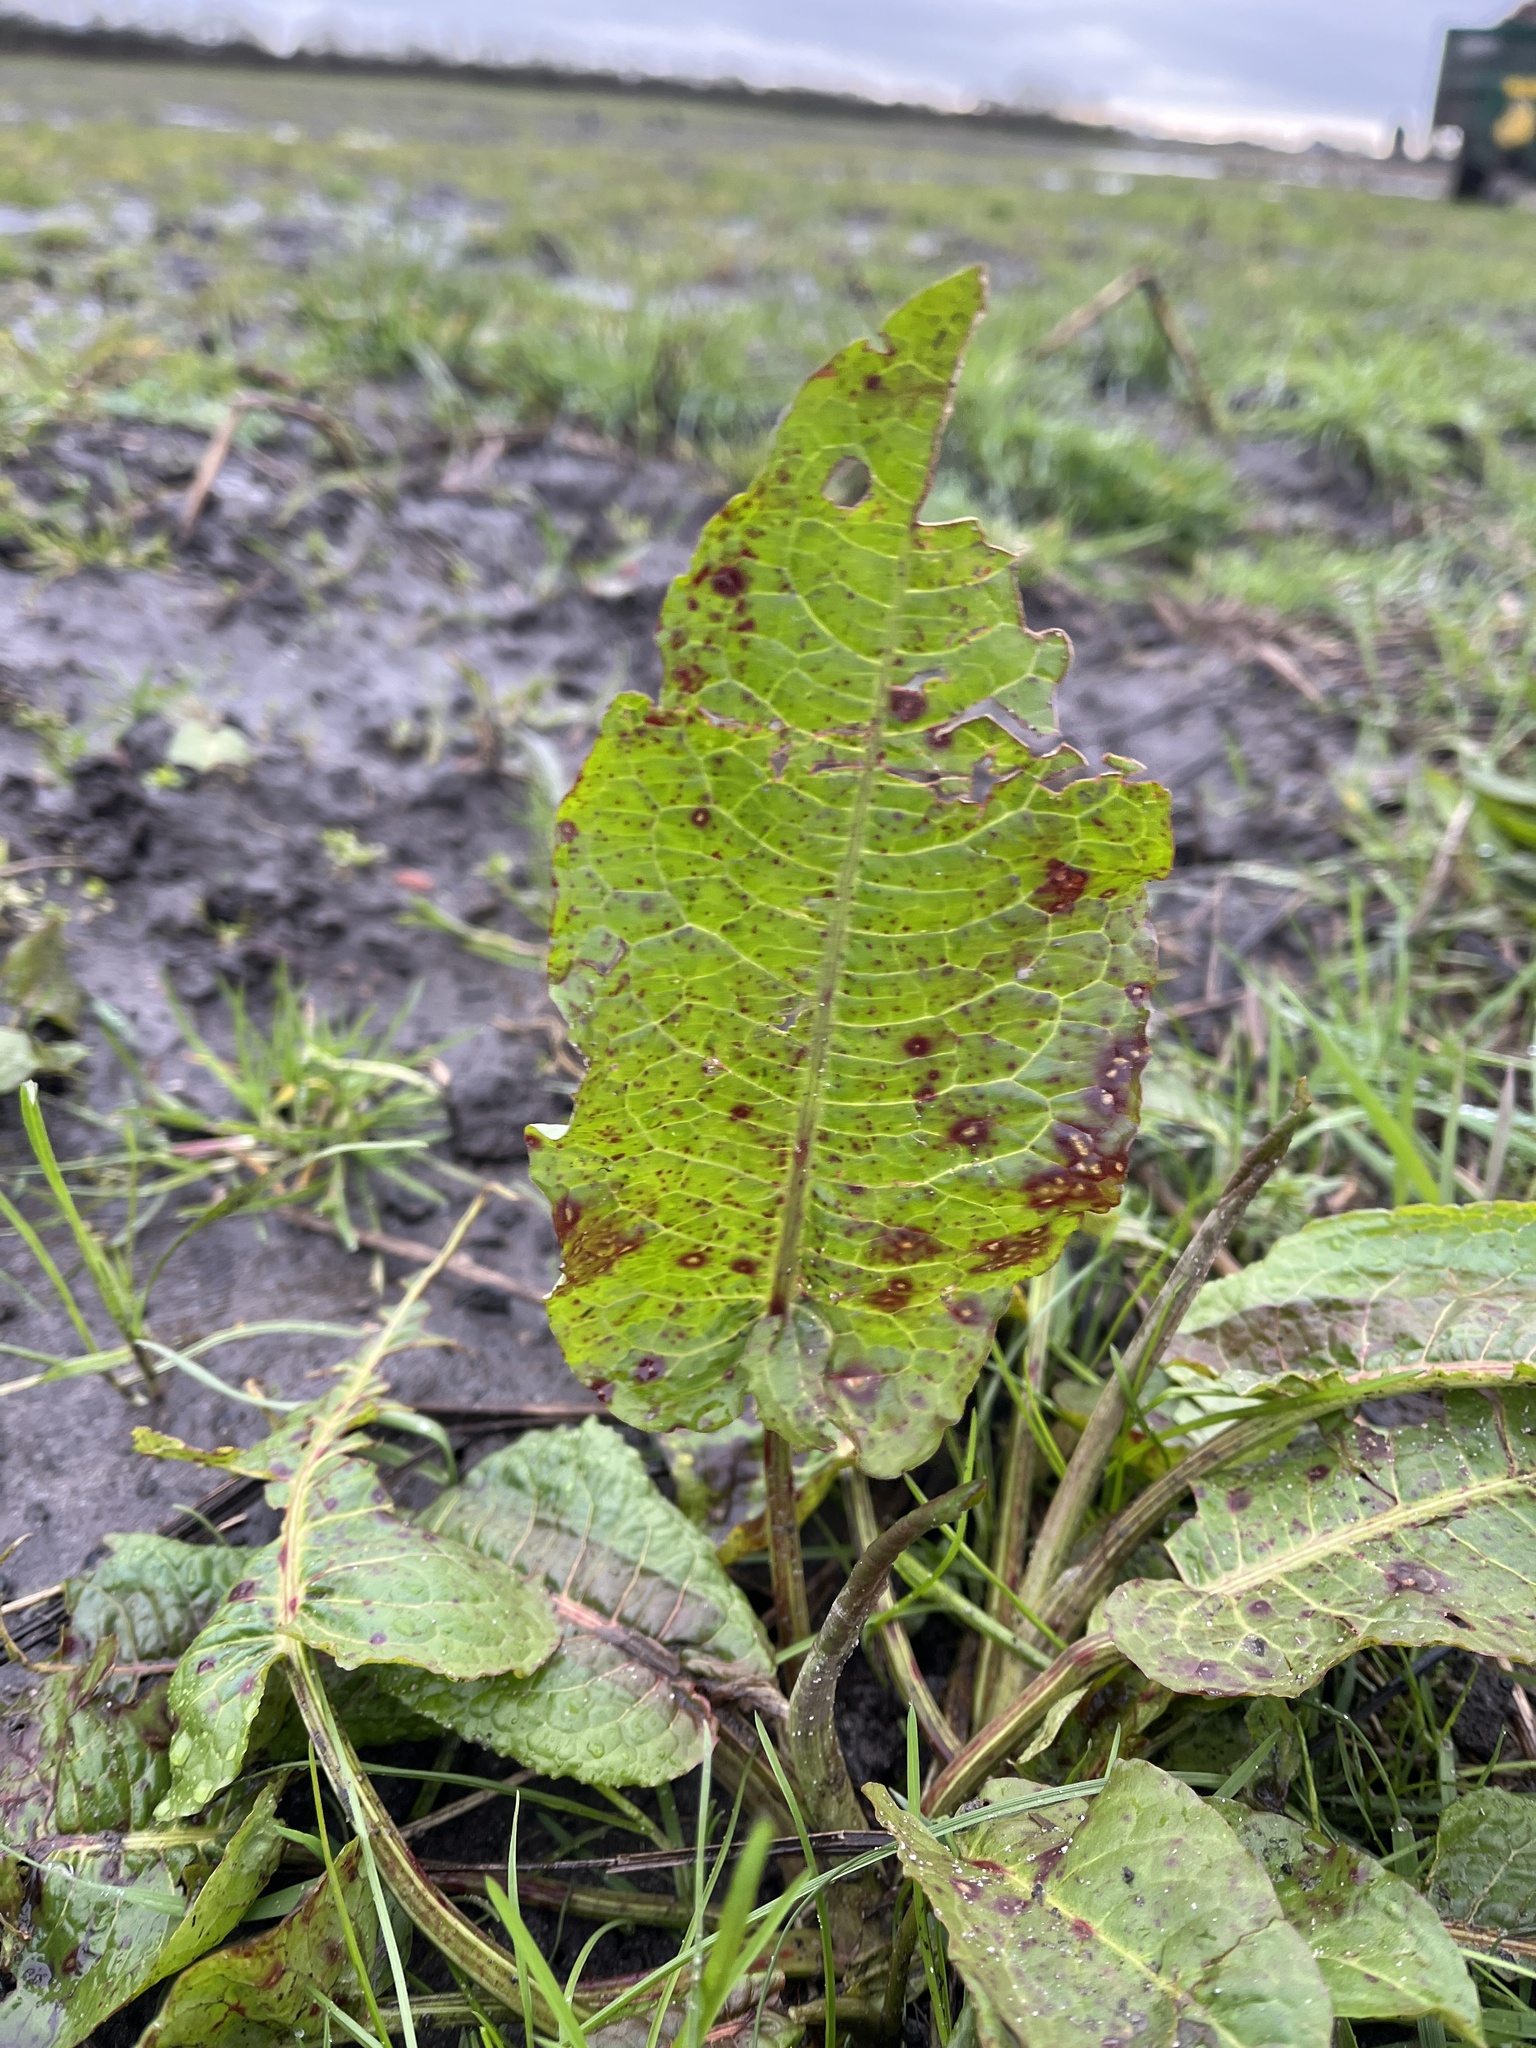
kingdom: Fungi
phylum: Ascomycota
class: Dothideomycetes
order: Mycosphaerellales
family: Mycosphaerellaceae
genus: Ramularia
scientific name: Ramularia rubella
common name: Red dock spot
